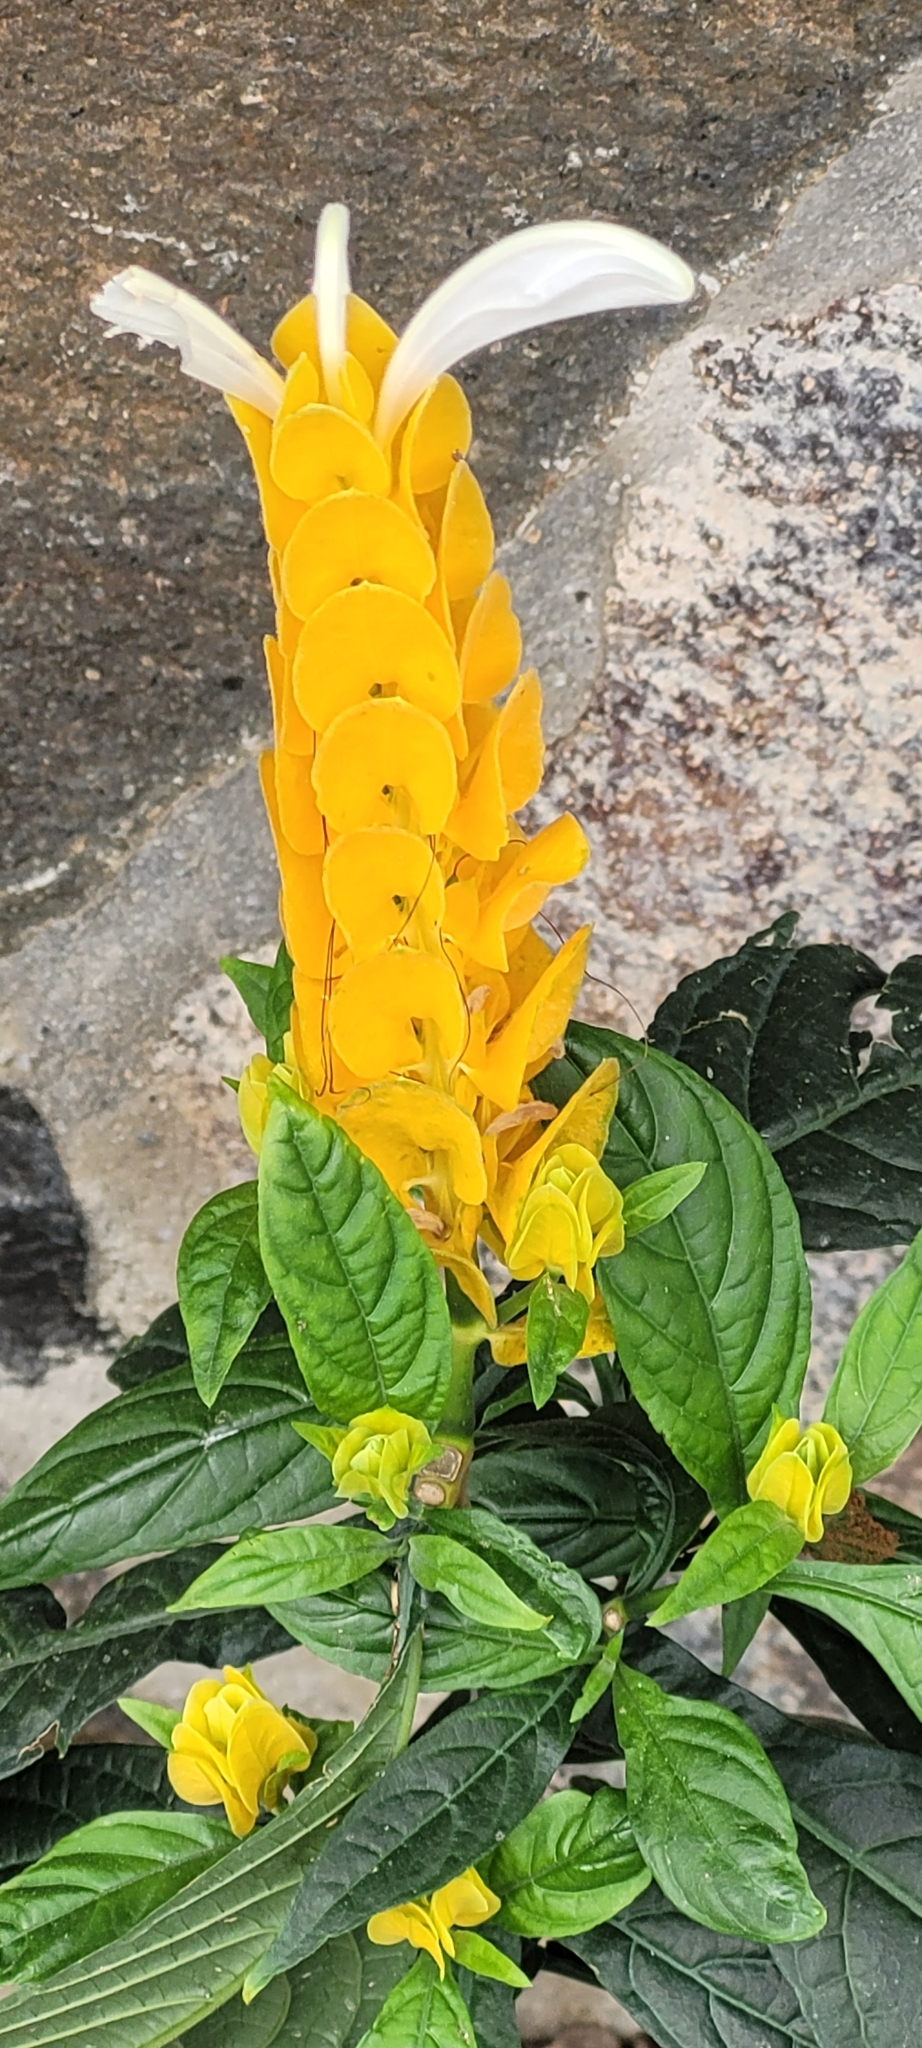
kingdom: Plantae
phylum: Tracheophyta
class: Magnoliopsida
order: Lamiales
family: Acanthaceae
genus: Pachystachys
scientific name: Pachystachys lutea
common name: Golden shrimp-plant
